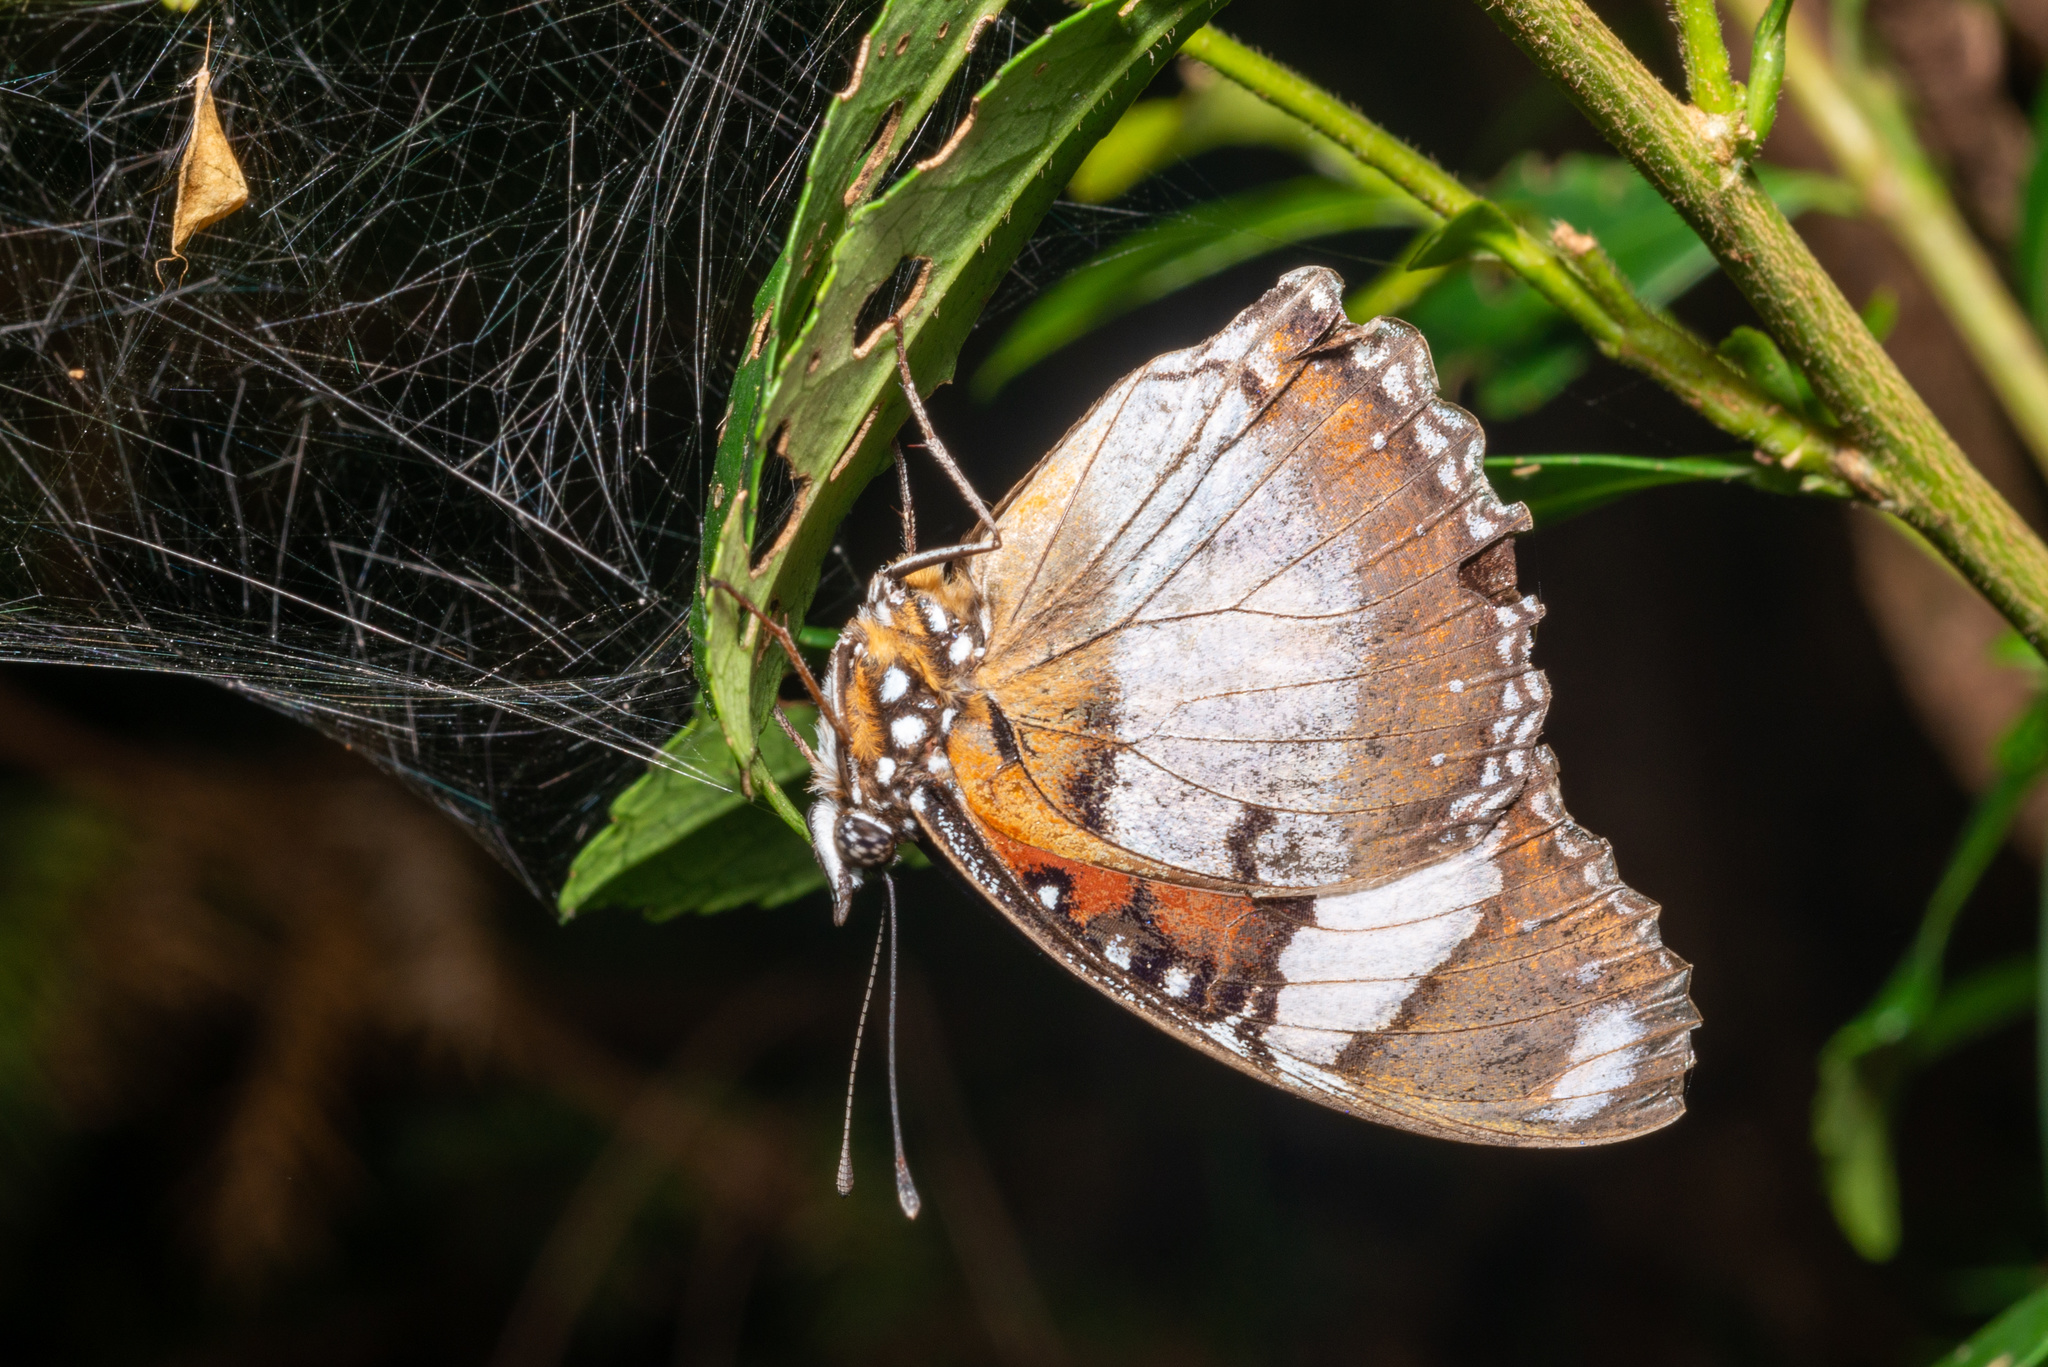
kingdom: Animalia
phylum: Arthropoda
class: Insecta
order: Lepidoptera
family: Nymphalidae
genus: Hypolimnas
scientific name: Hypolimnas misippus
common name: False plain tiger
